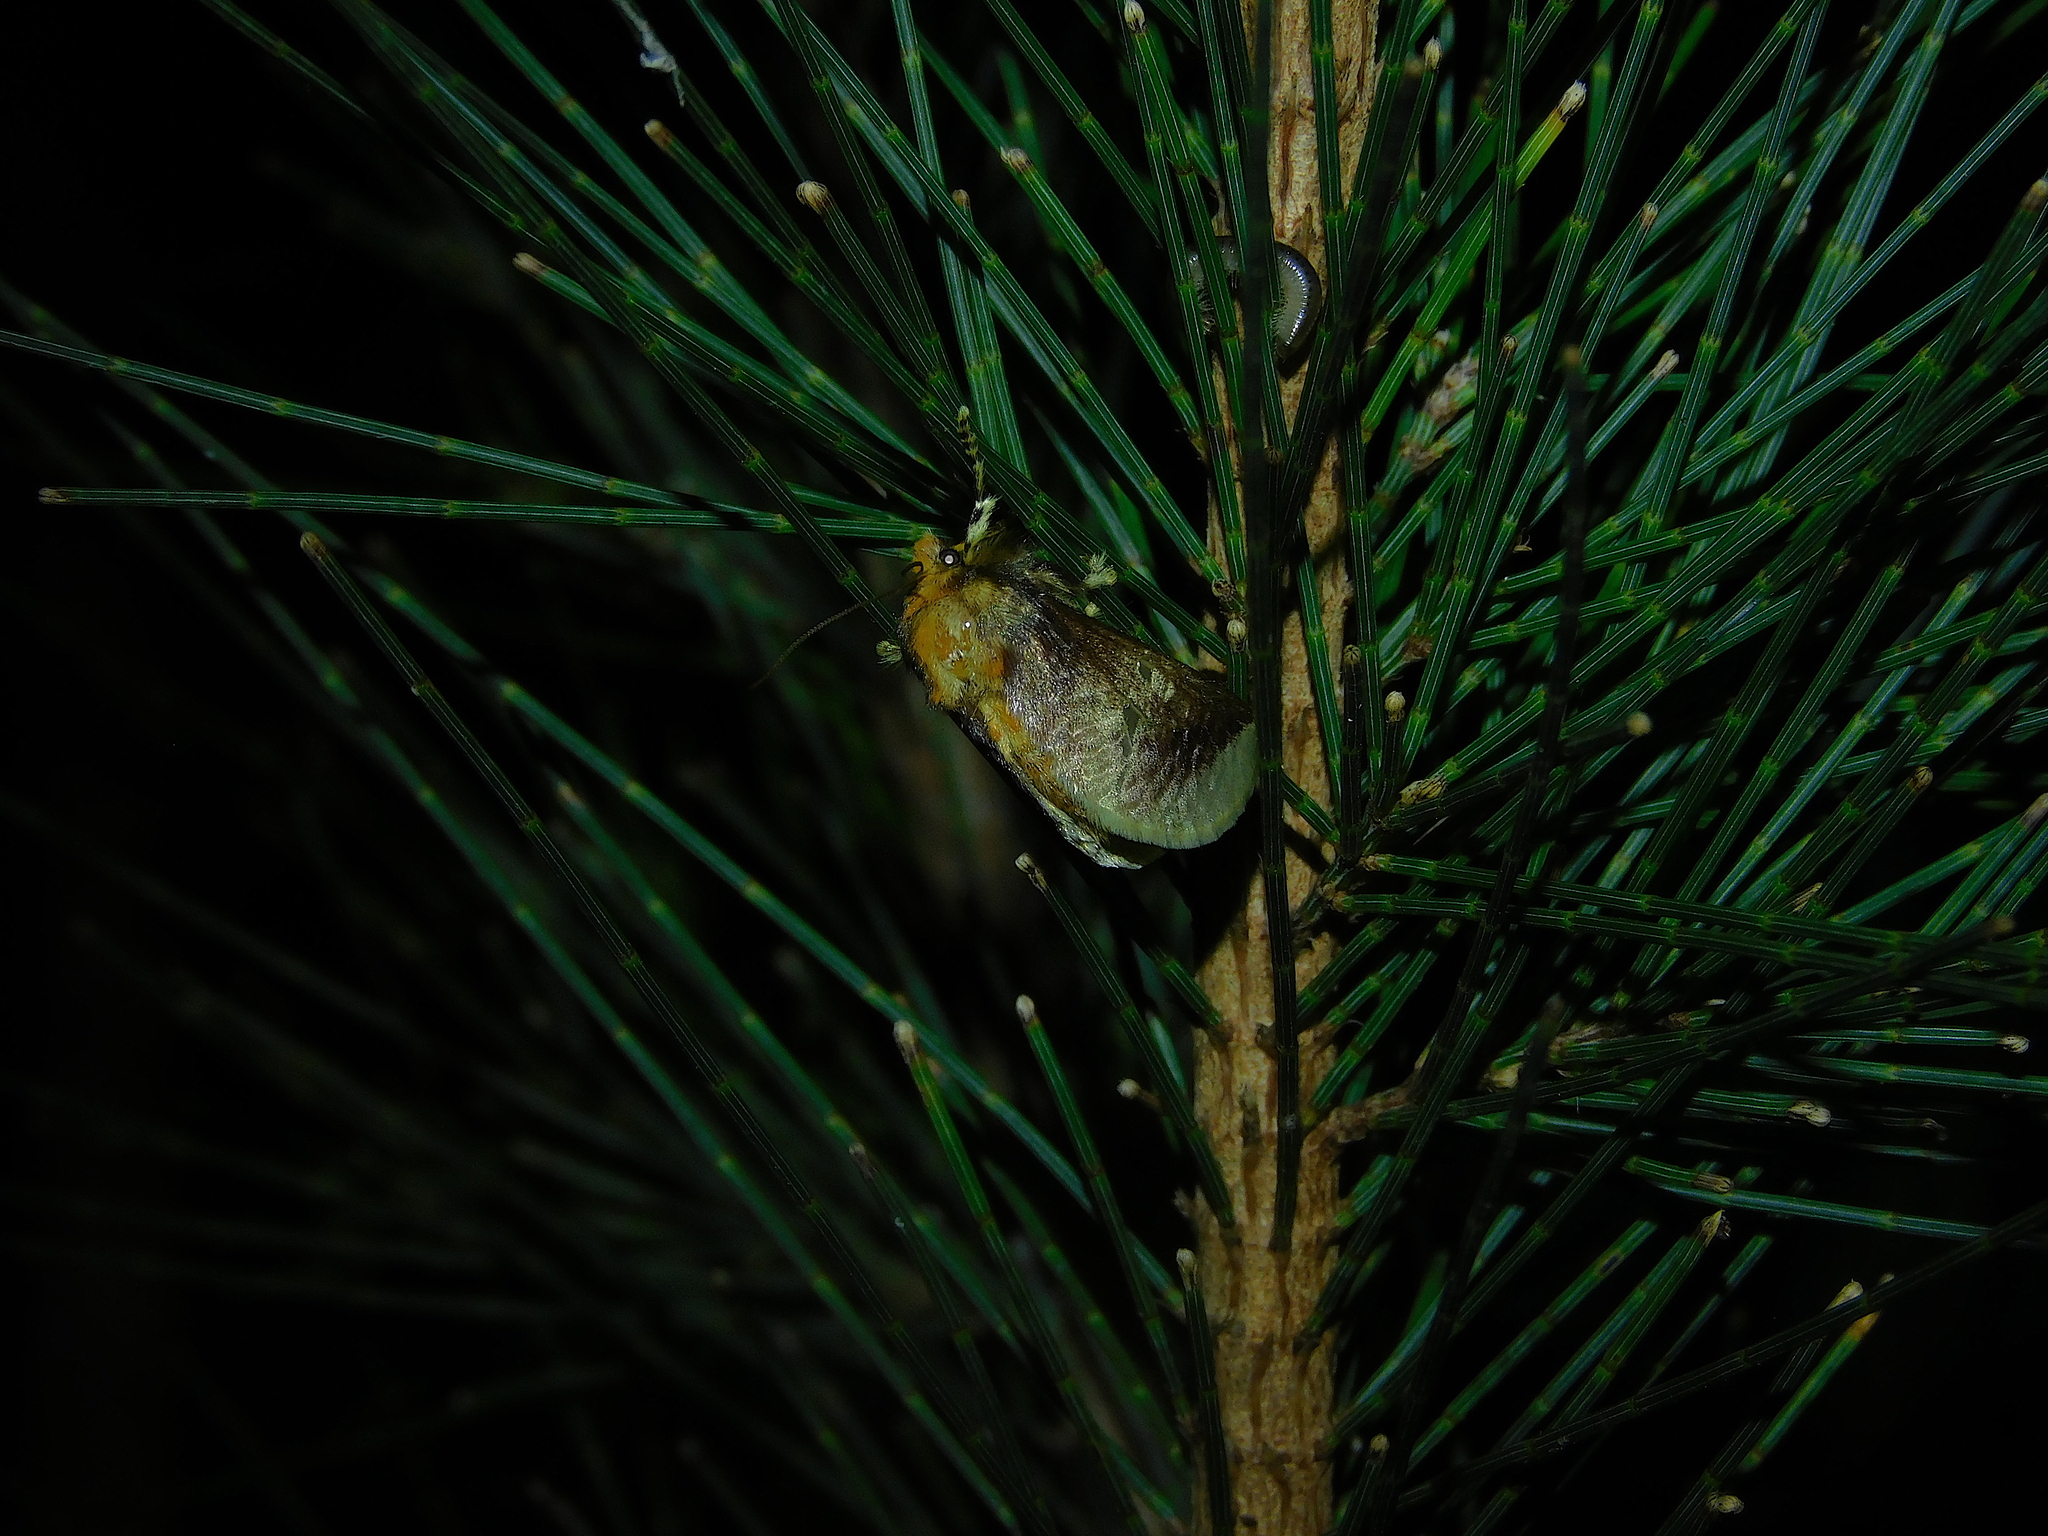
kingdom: Animalia
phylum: Arthropoda
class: Insecta
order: Lepidoptera
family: Limacodidae
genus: Doratifera
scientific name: Doratifera oxleyi
